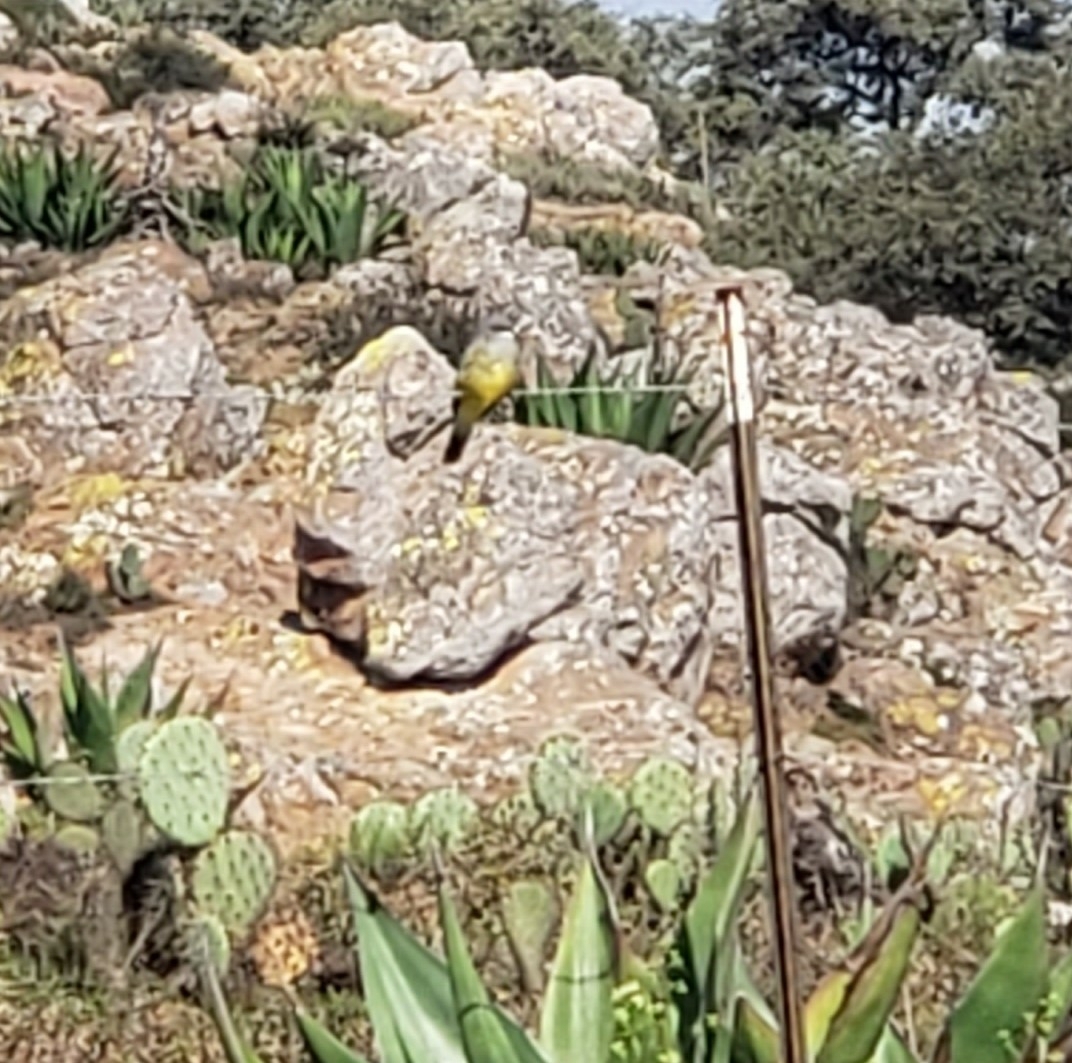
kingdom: Animalia
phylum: Chordata
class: Aves
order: Passeriformes
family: Tyrannidae
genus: Tyrannus
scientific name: Tyrannus vociferans
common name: Cassin's kingbird
